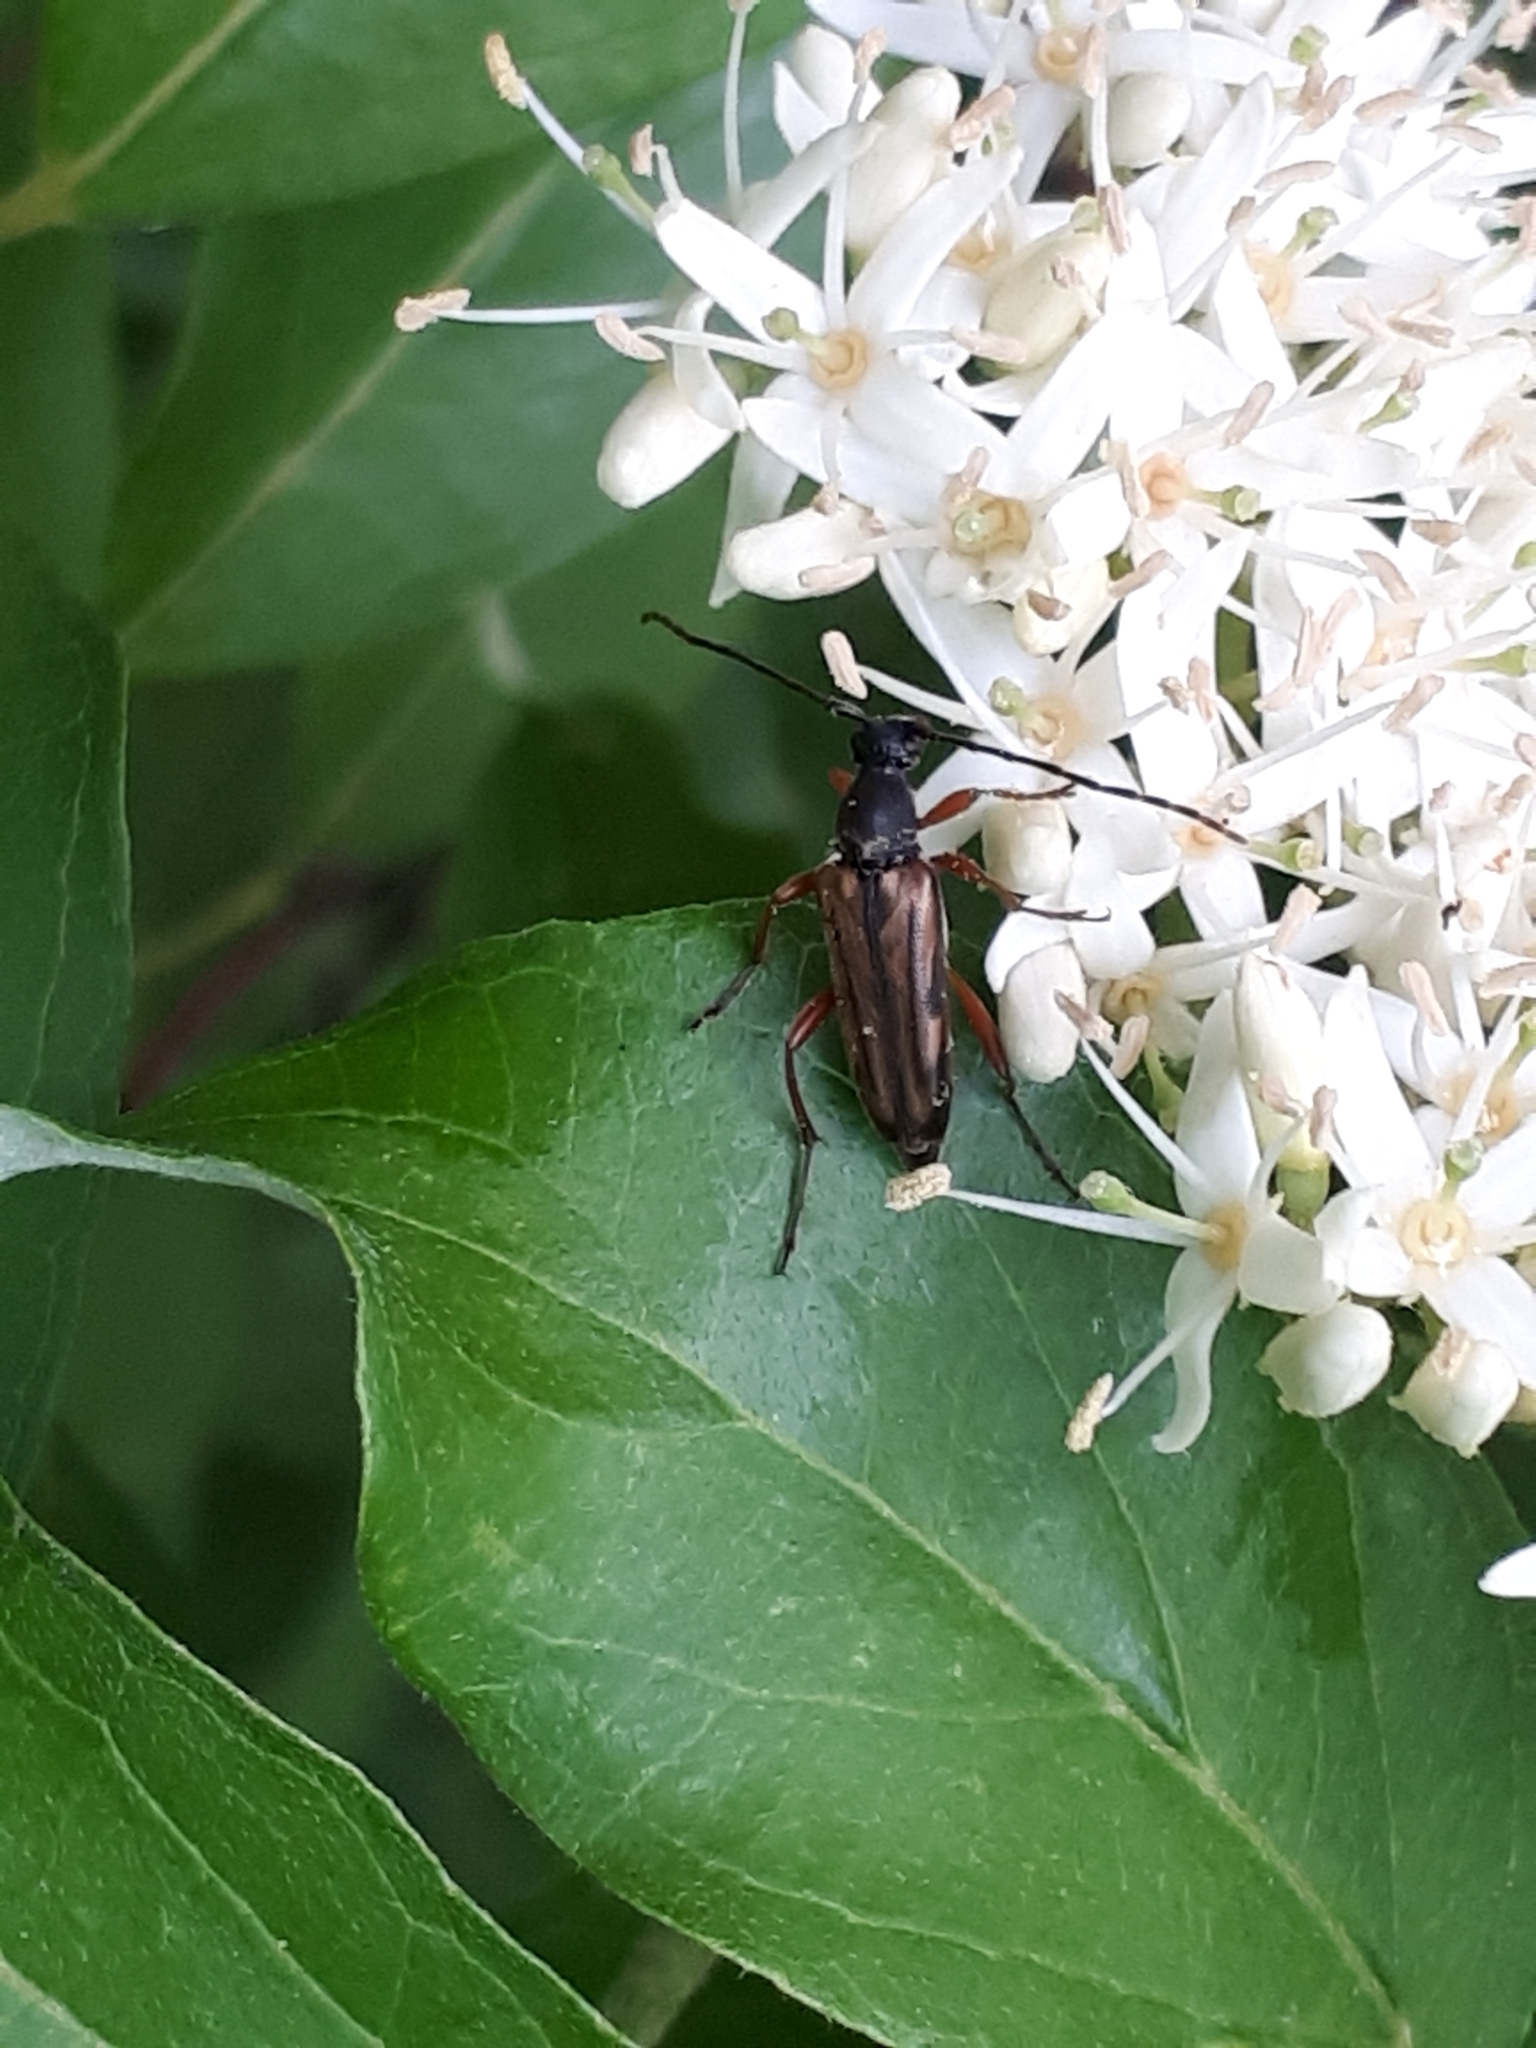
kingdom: Animalia
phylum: Arthropoda
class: Insecta
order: Coleoptera
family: Cerambycidae
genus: Analeptura
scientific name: Analeptura lineola
